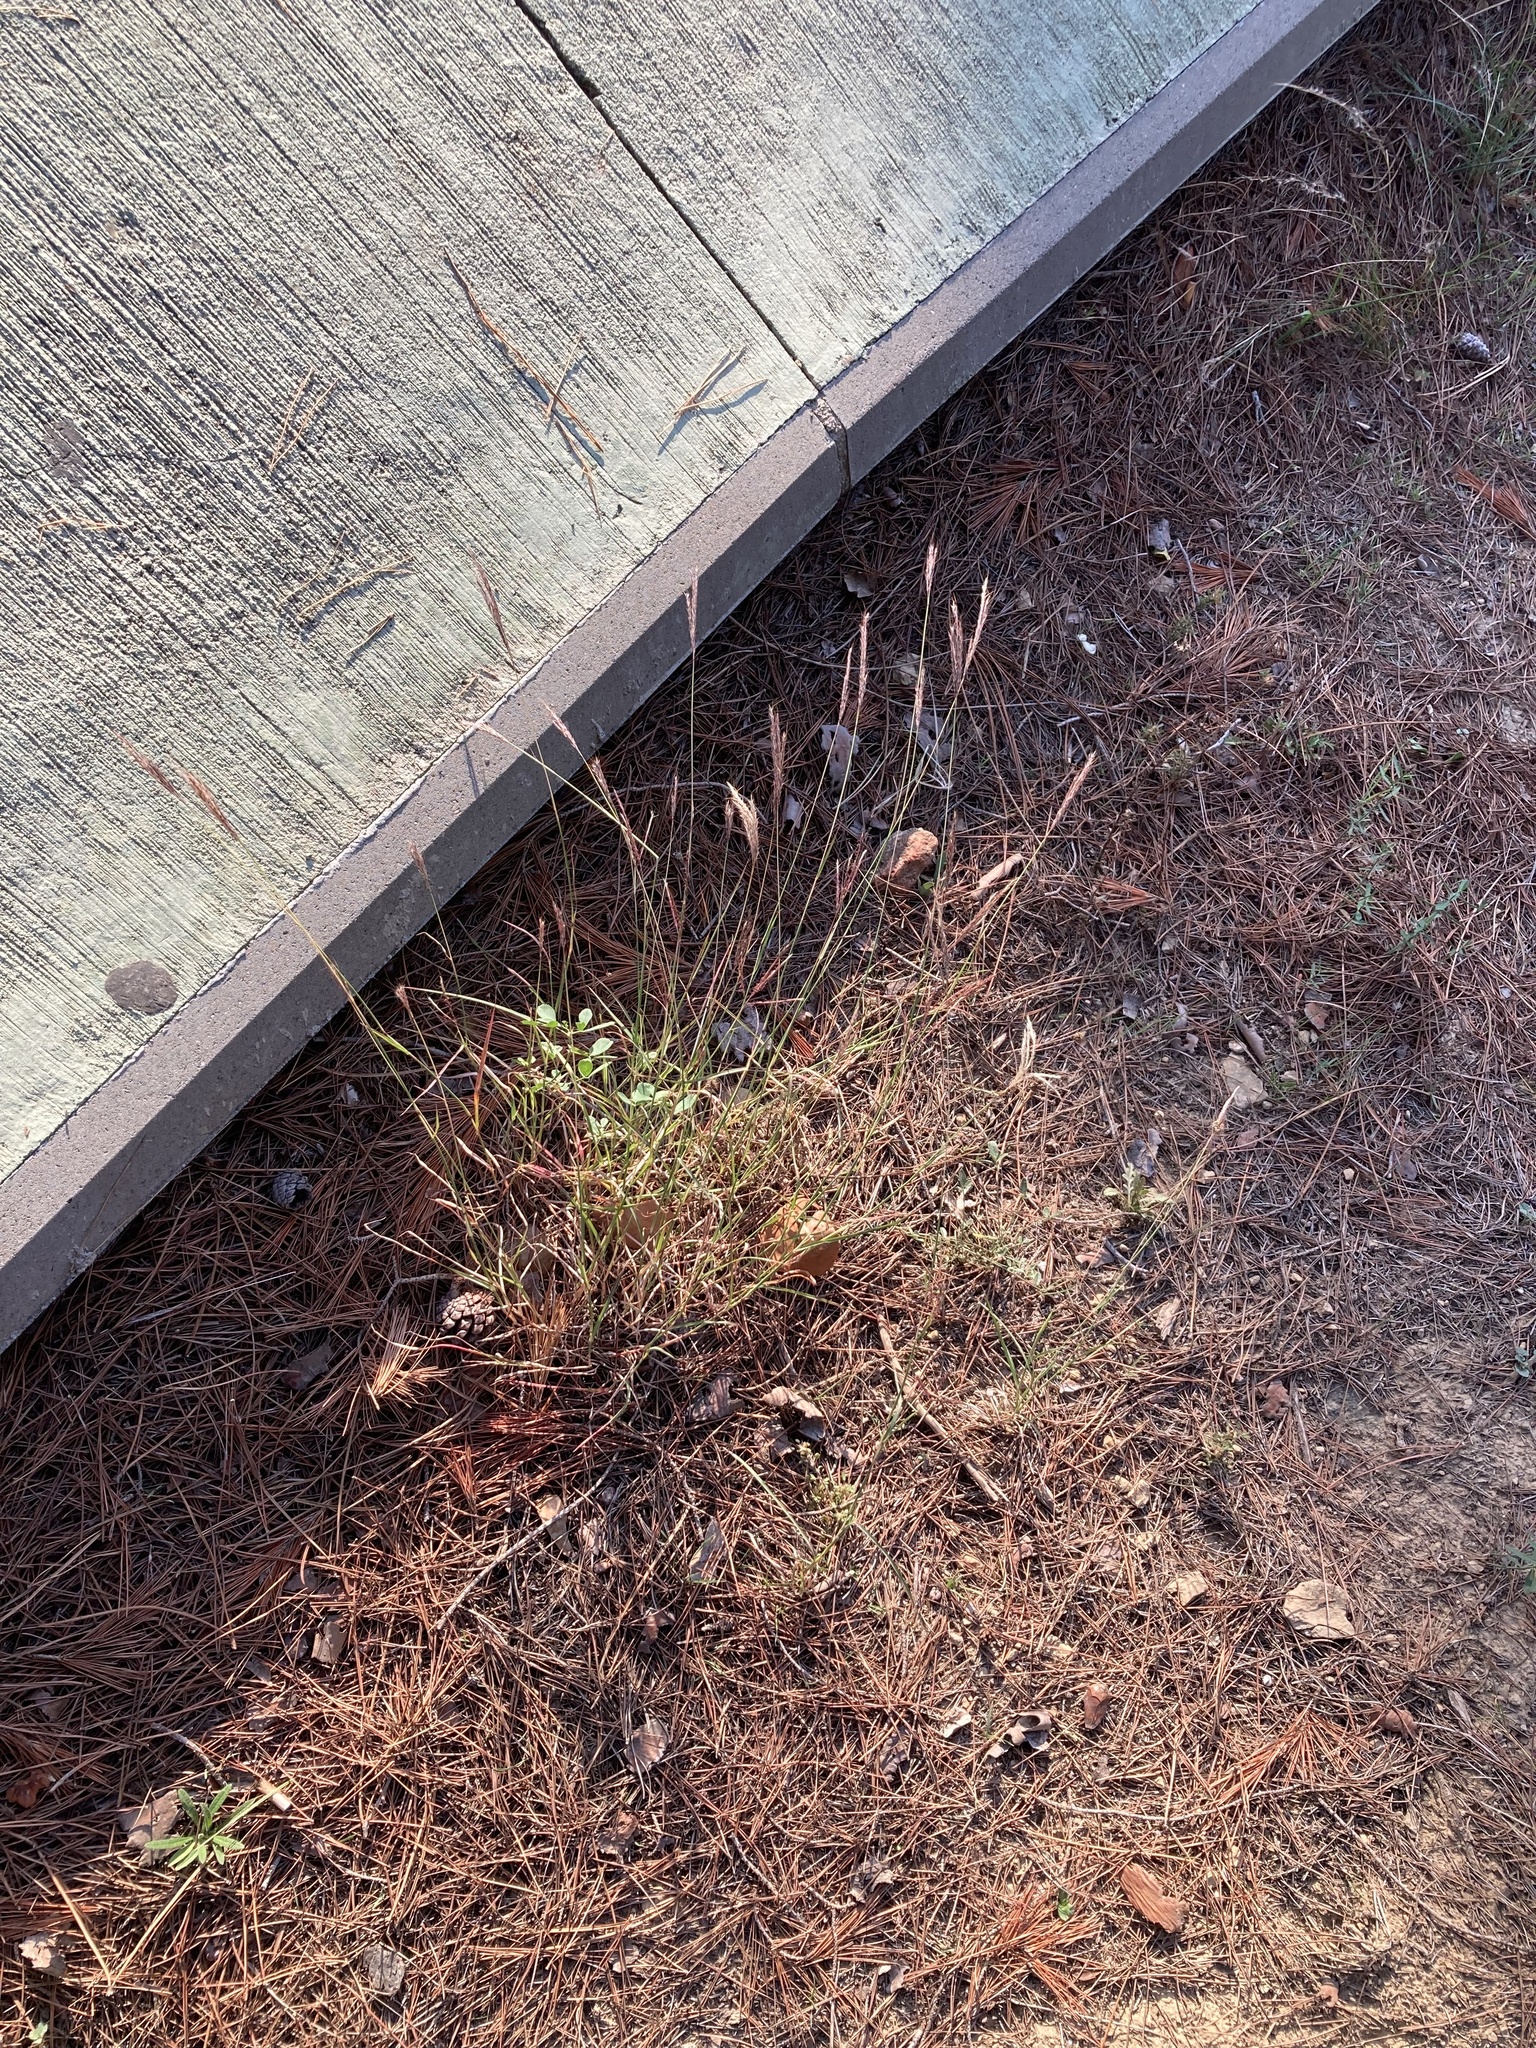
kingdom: Plantae
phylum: Tracheophyta
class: Liliopsida
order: Poales
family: Poaceae
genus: Bothriochloa
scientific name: Bothriochloa ischaemum
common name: Yellow bluestem
